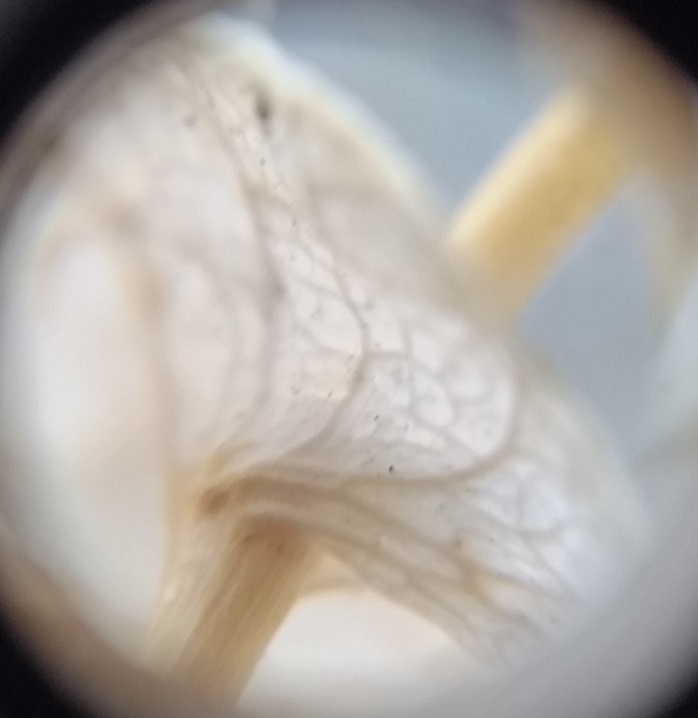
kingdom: Plantae
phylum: Tracheophyta
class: Magnoliopsida
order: Brassicales
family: Brassicaceae
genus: Lepidium
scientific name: Lepidium perfoliatum
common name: Perfoliate pepperwort
